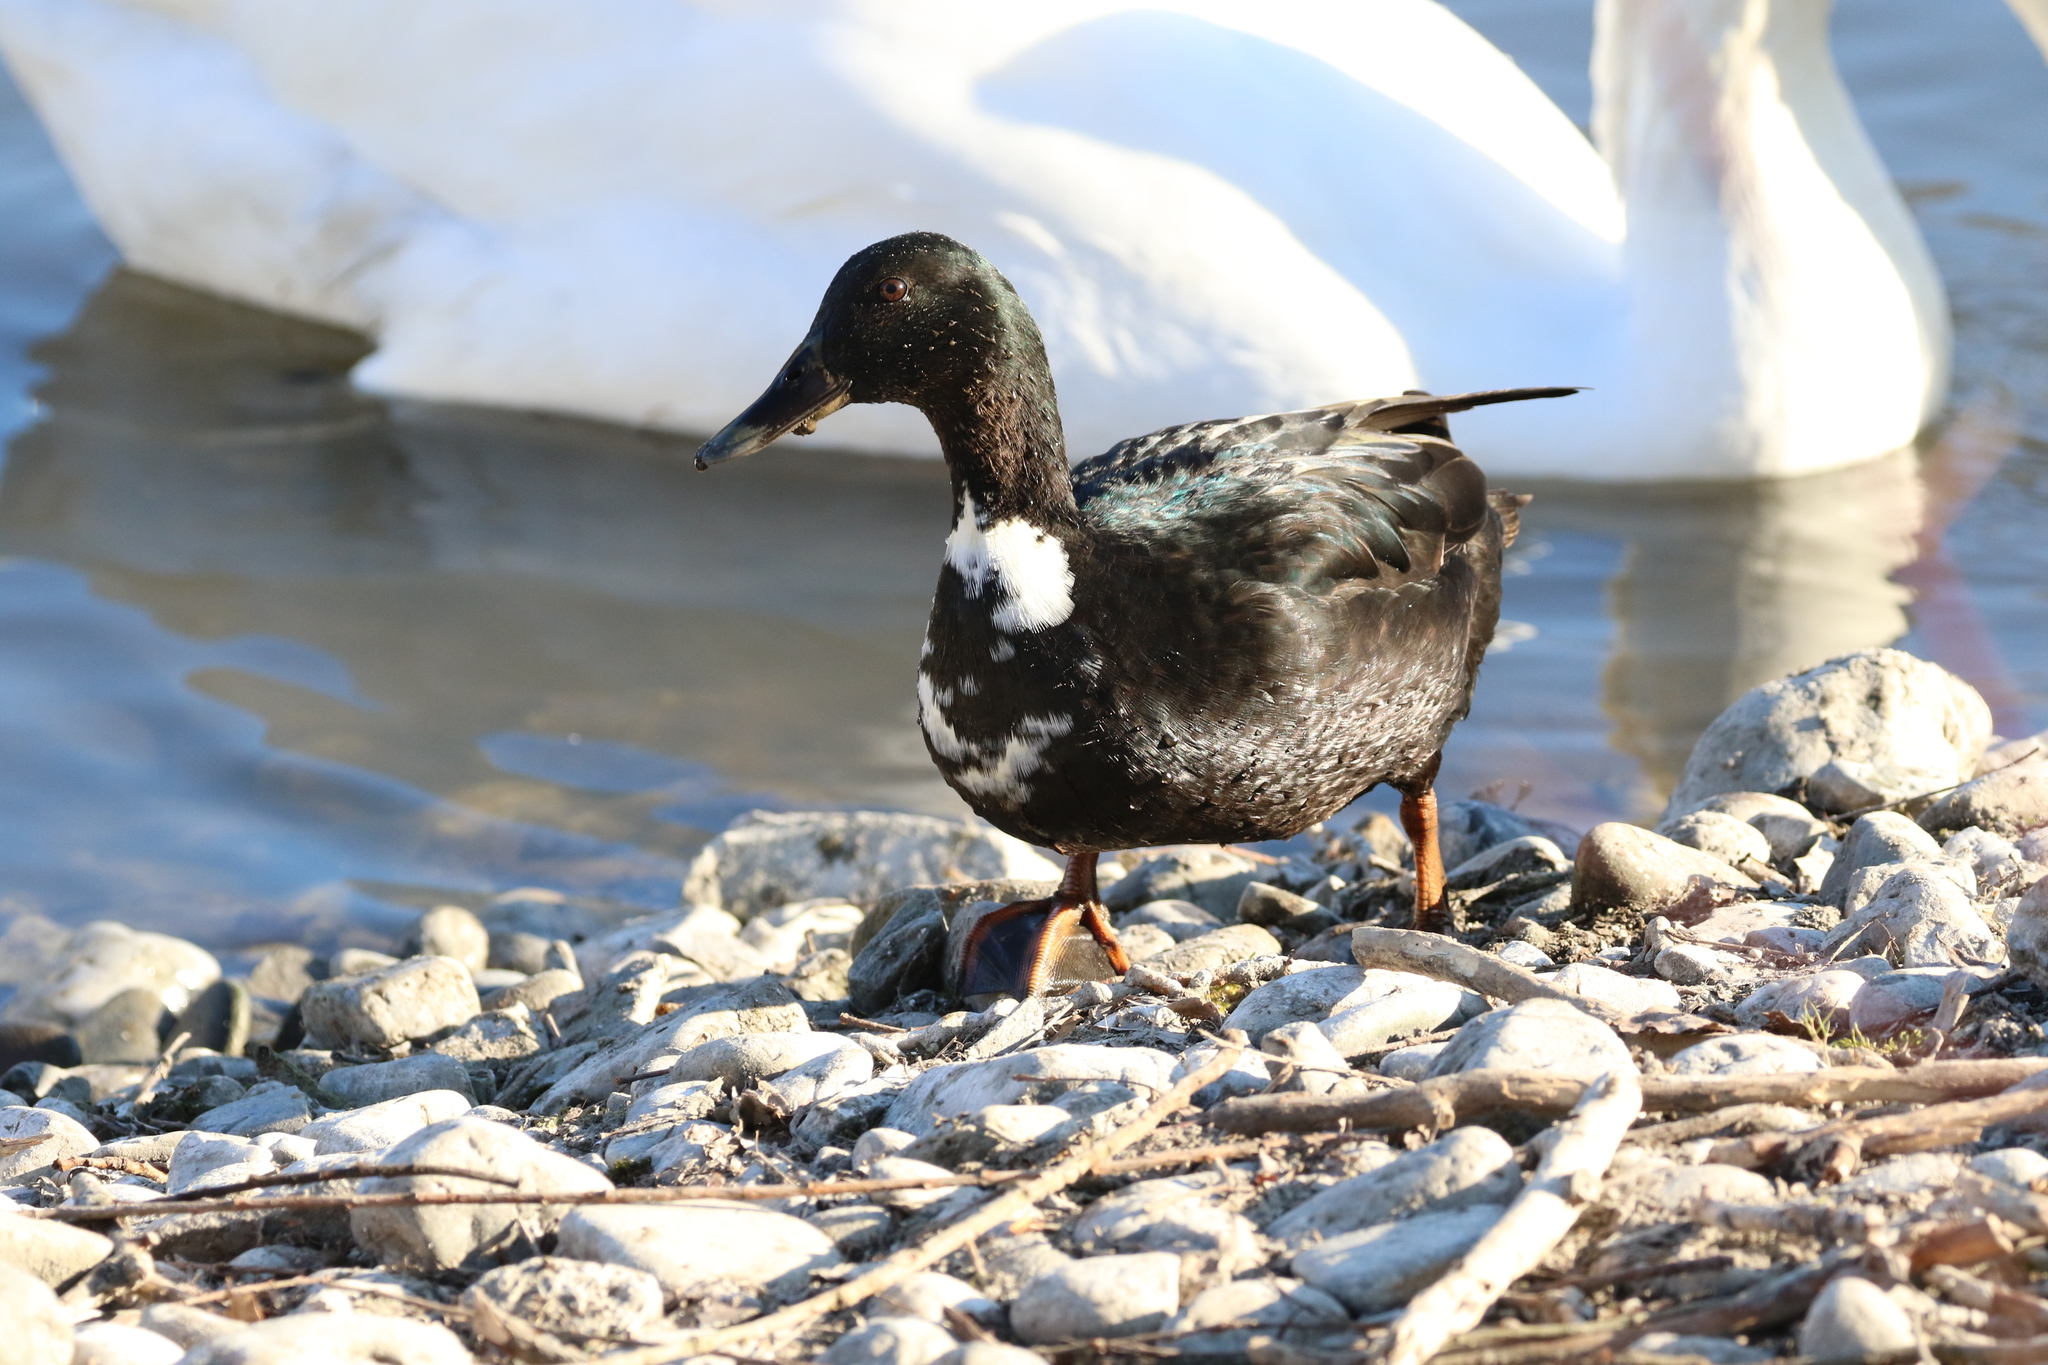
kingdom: Animalia
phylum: Chordata
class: Aves
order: Anseriformes
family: Anatidae
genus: Anas
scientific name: Anas platyrhynchos
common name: Mallard
